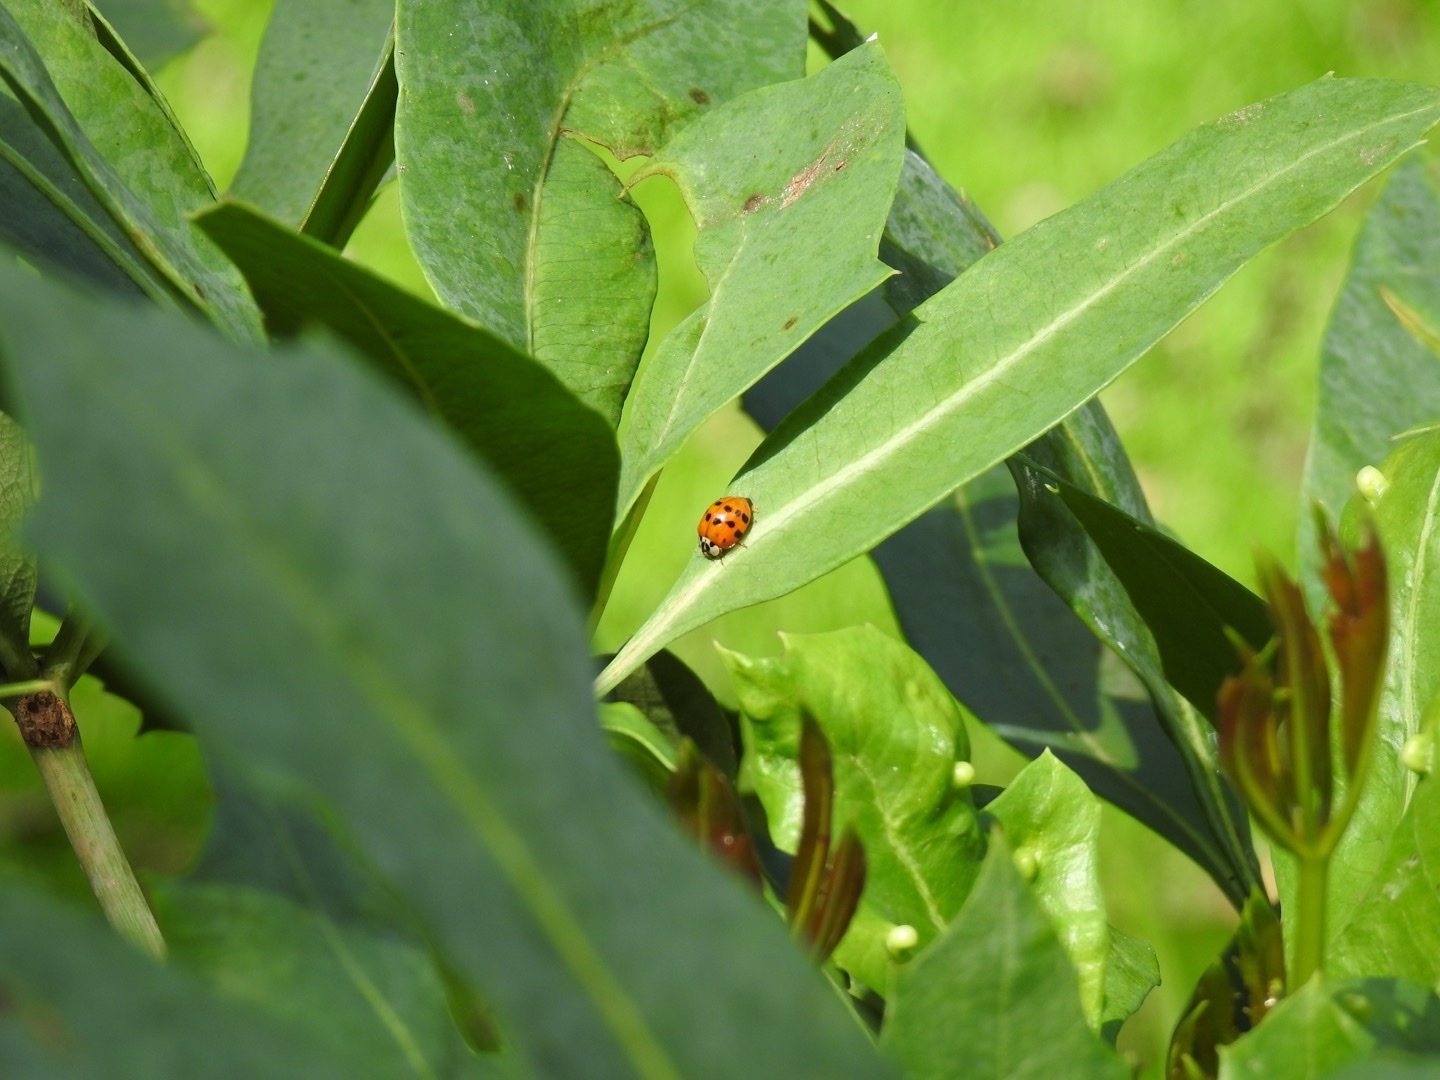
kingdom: Animalia
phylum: Arthropoda
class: Insecta
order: Coleoptera
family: Coccinellidae
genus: Harmonia
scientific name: Harmonia axyridis
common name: Harlequin ladybird
